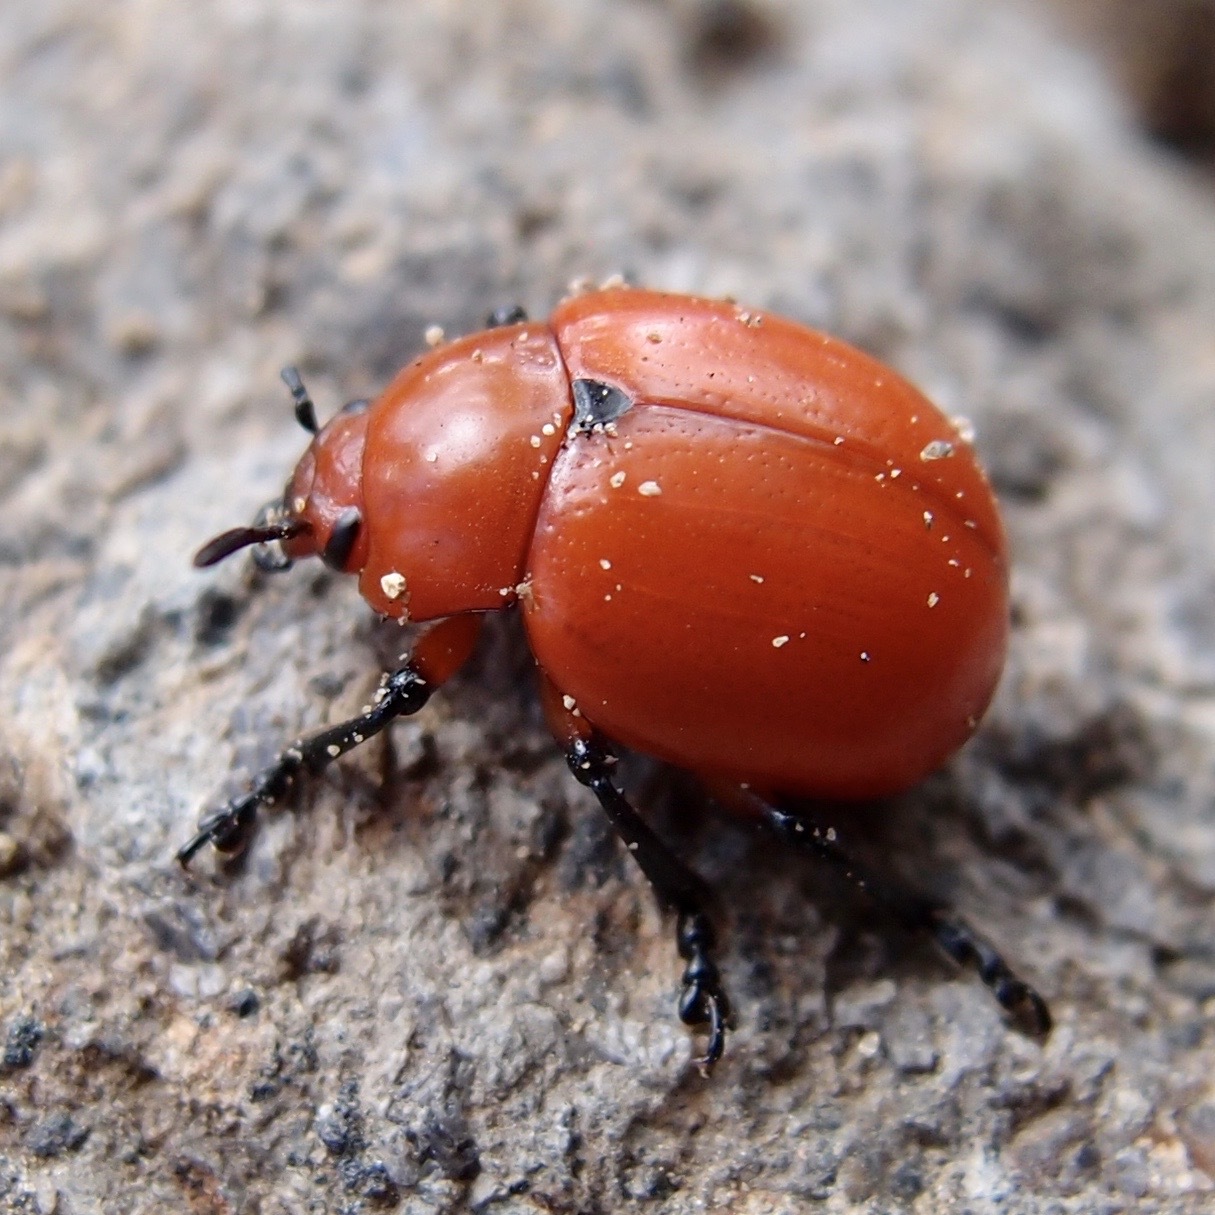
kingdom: Animalia
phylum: Arthropoda
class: Insecta
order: Coleoptera
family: Chrysomelidae
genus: Leptinotarsa
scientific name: Leptinotarsa rubiginosa
